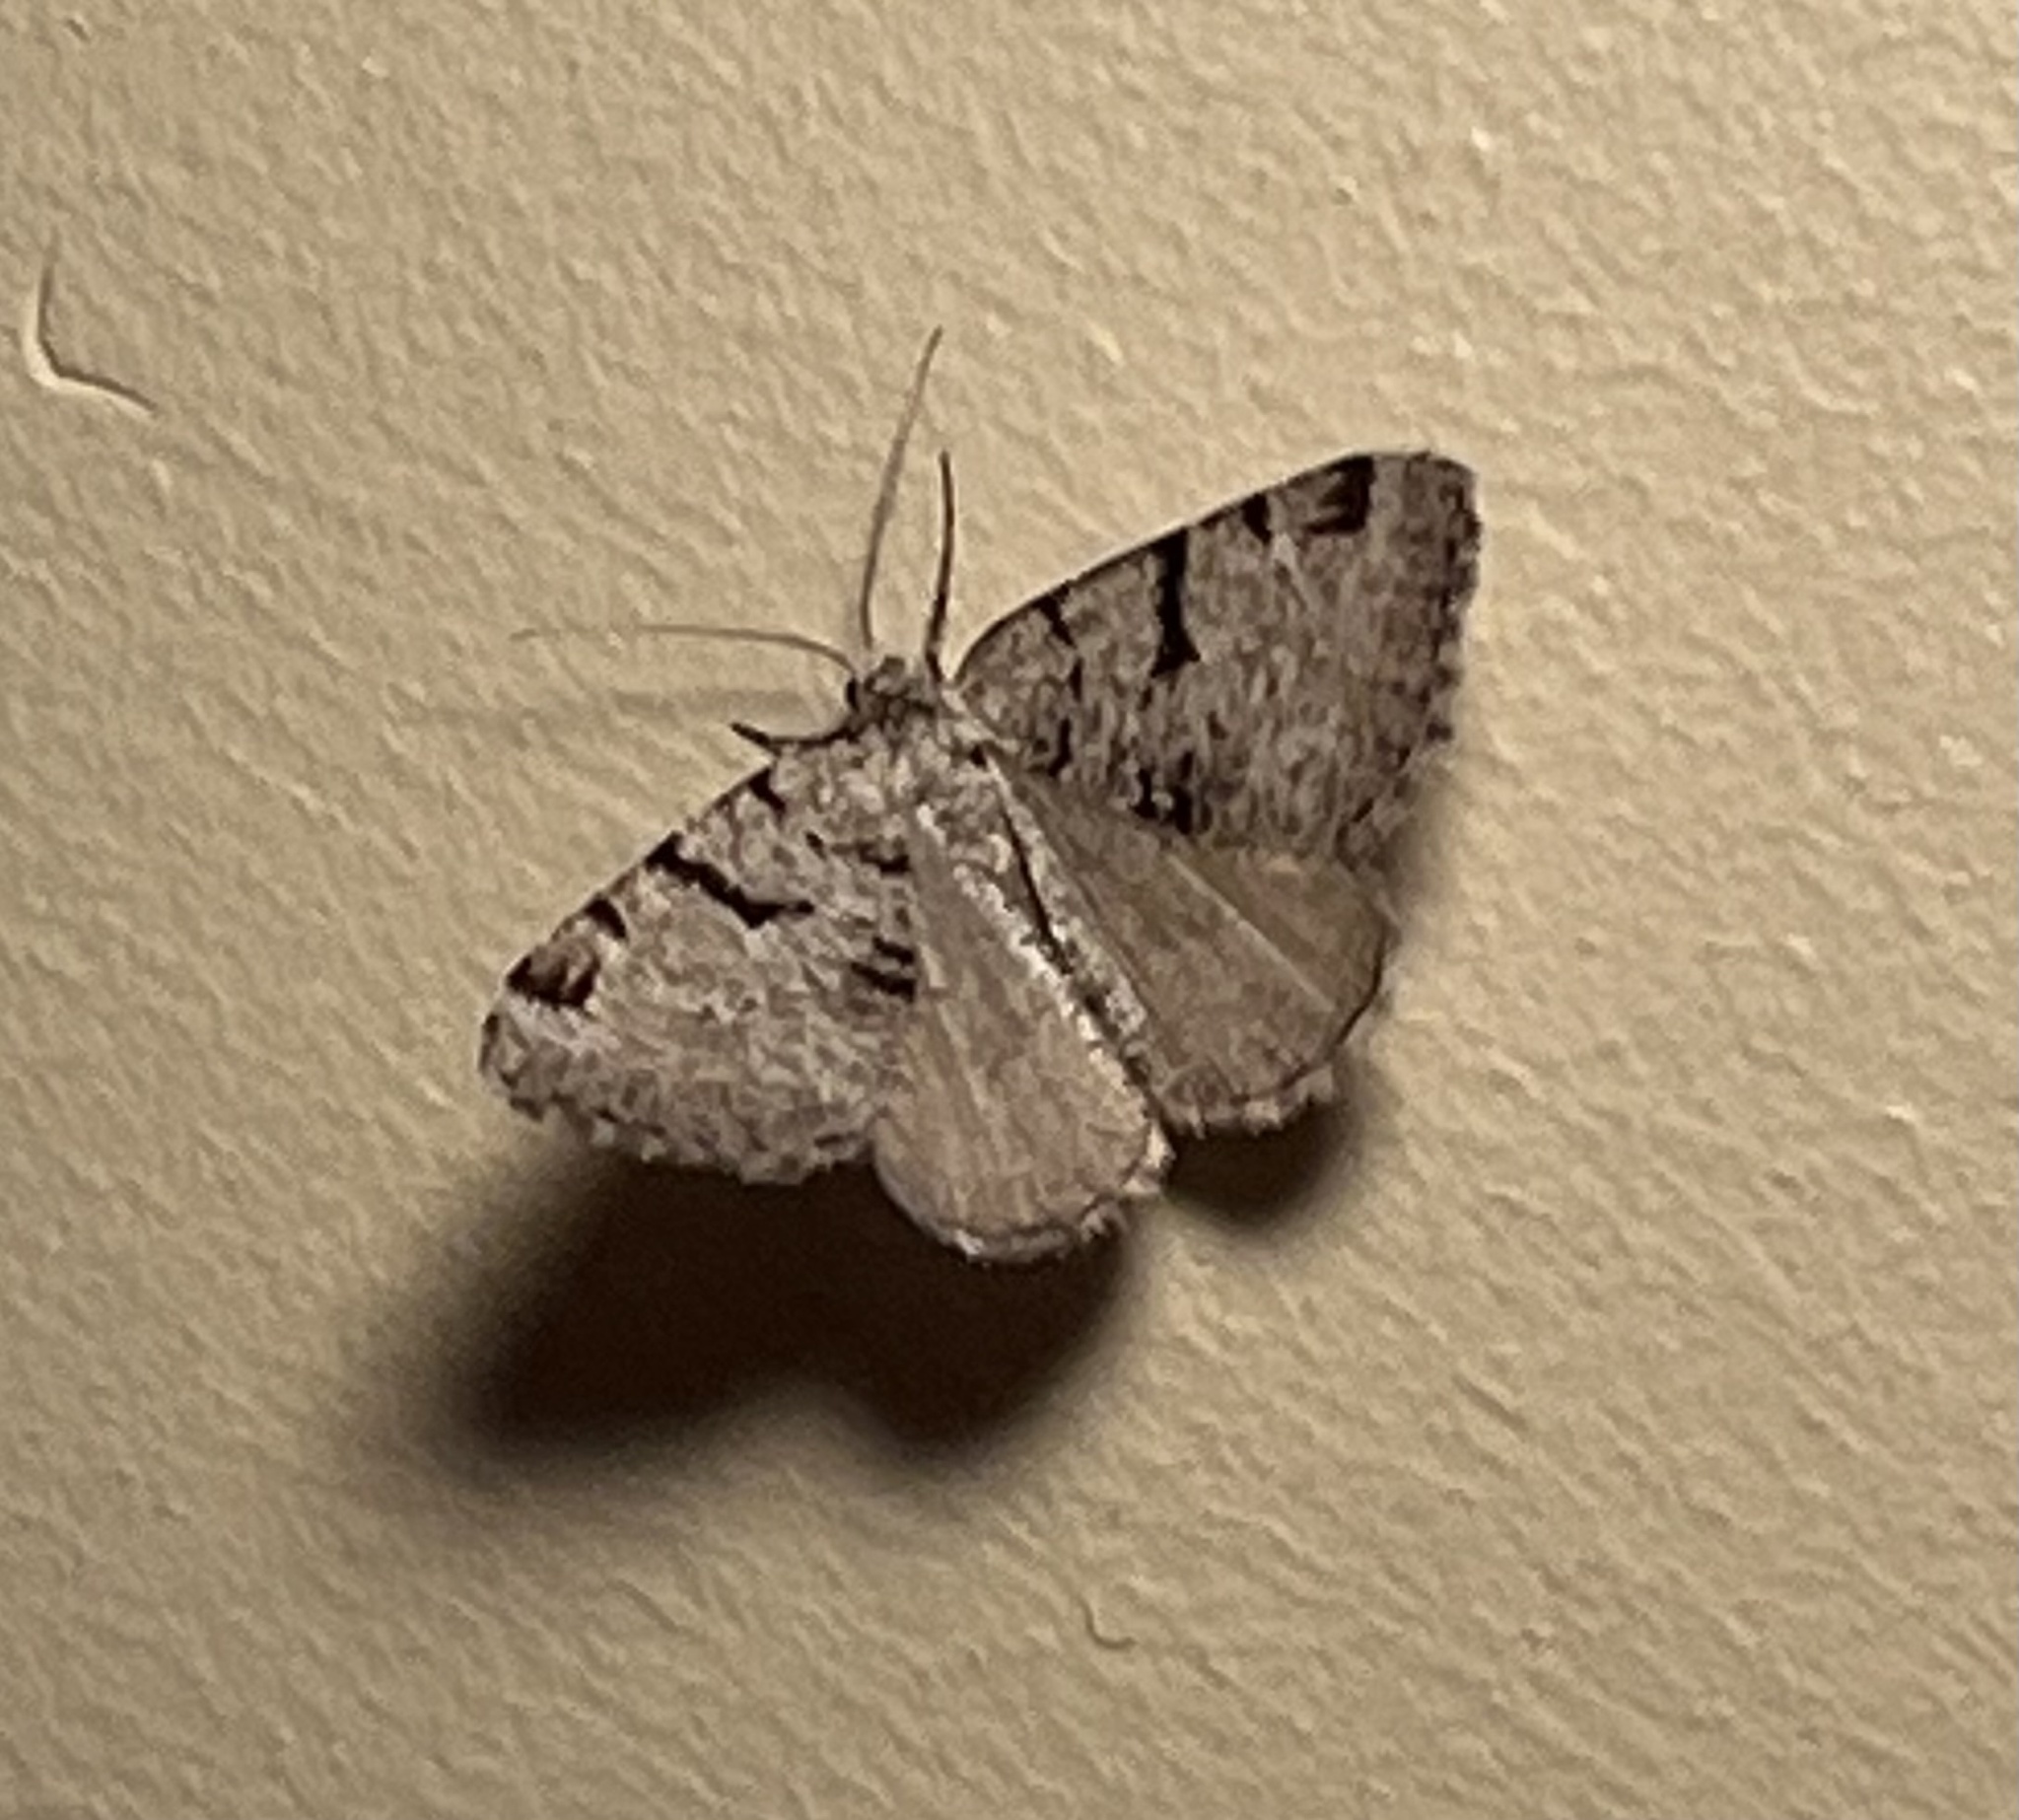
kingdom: Animalia
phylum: Arthropoda
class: Insecta
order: Lepidoptera
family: Geometridae
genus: Macaria
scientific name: Macaria bitactata
